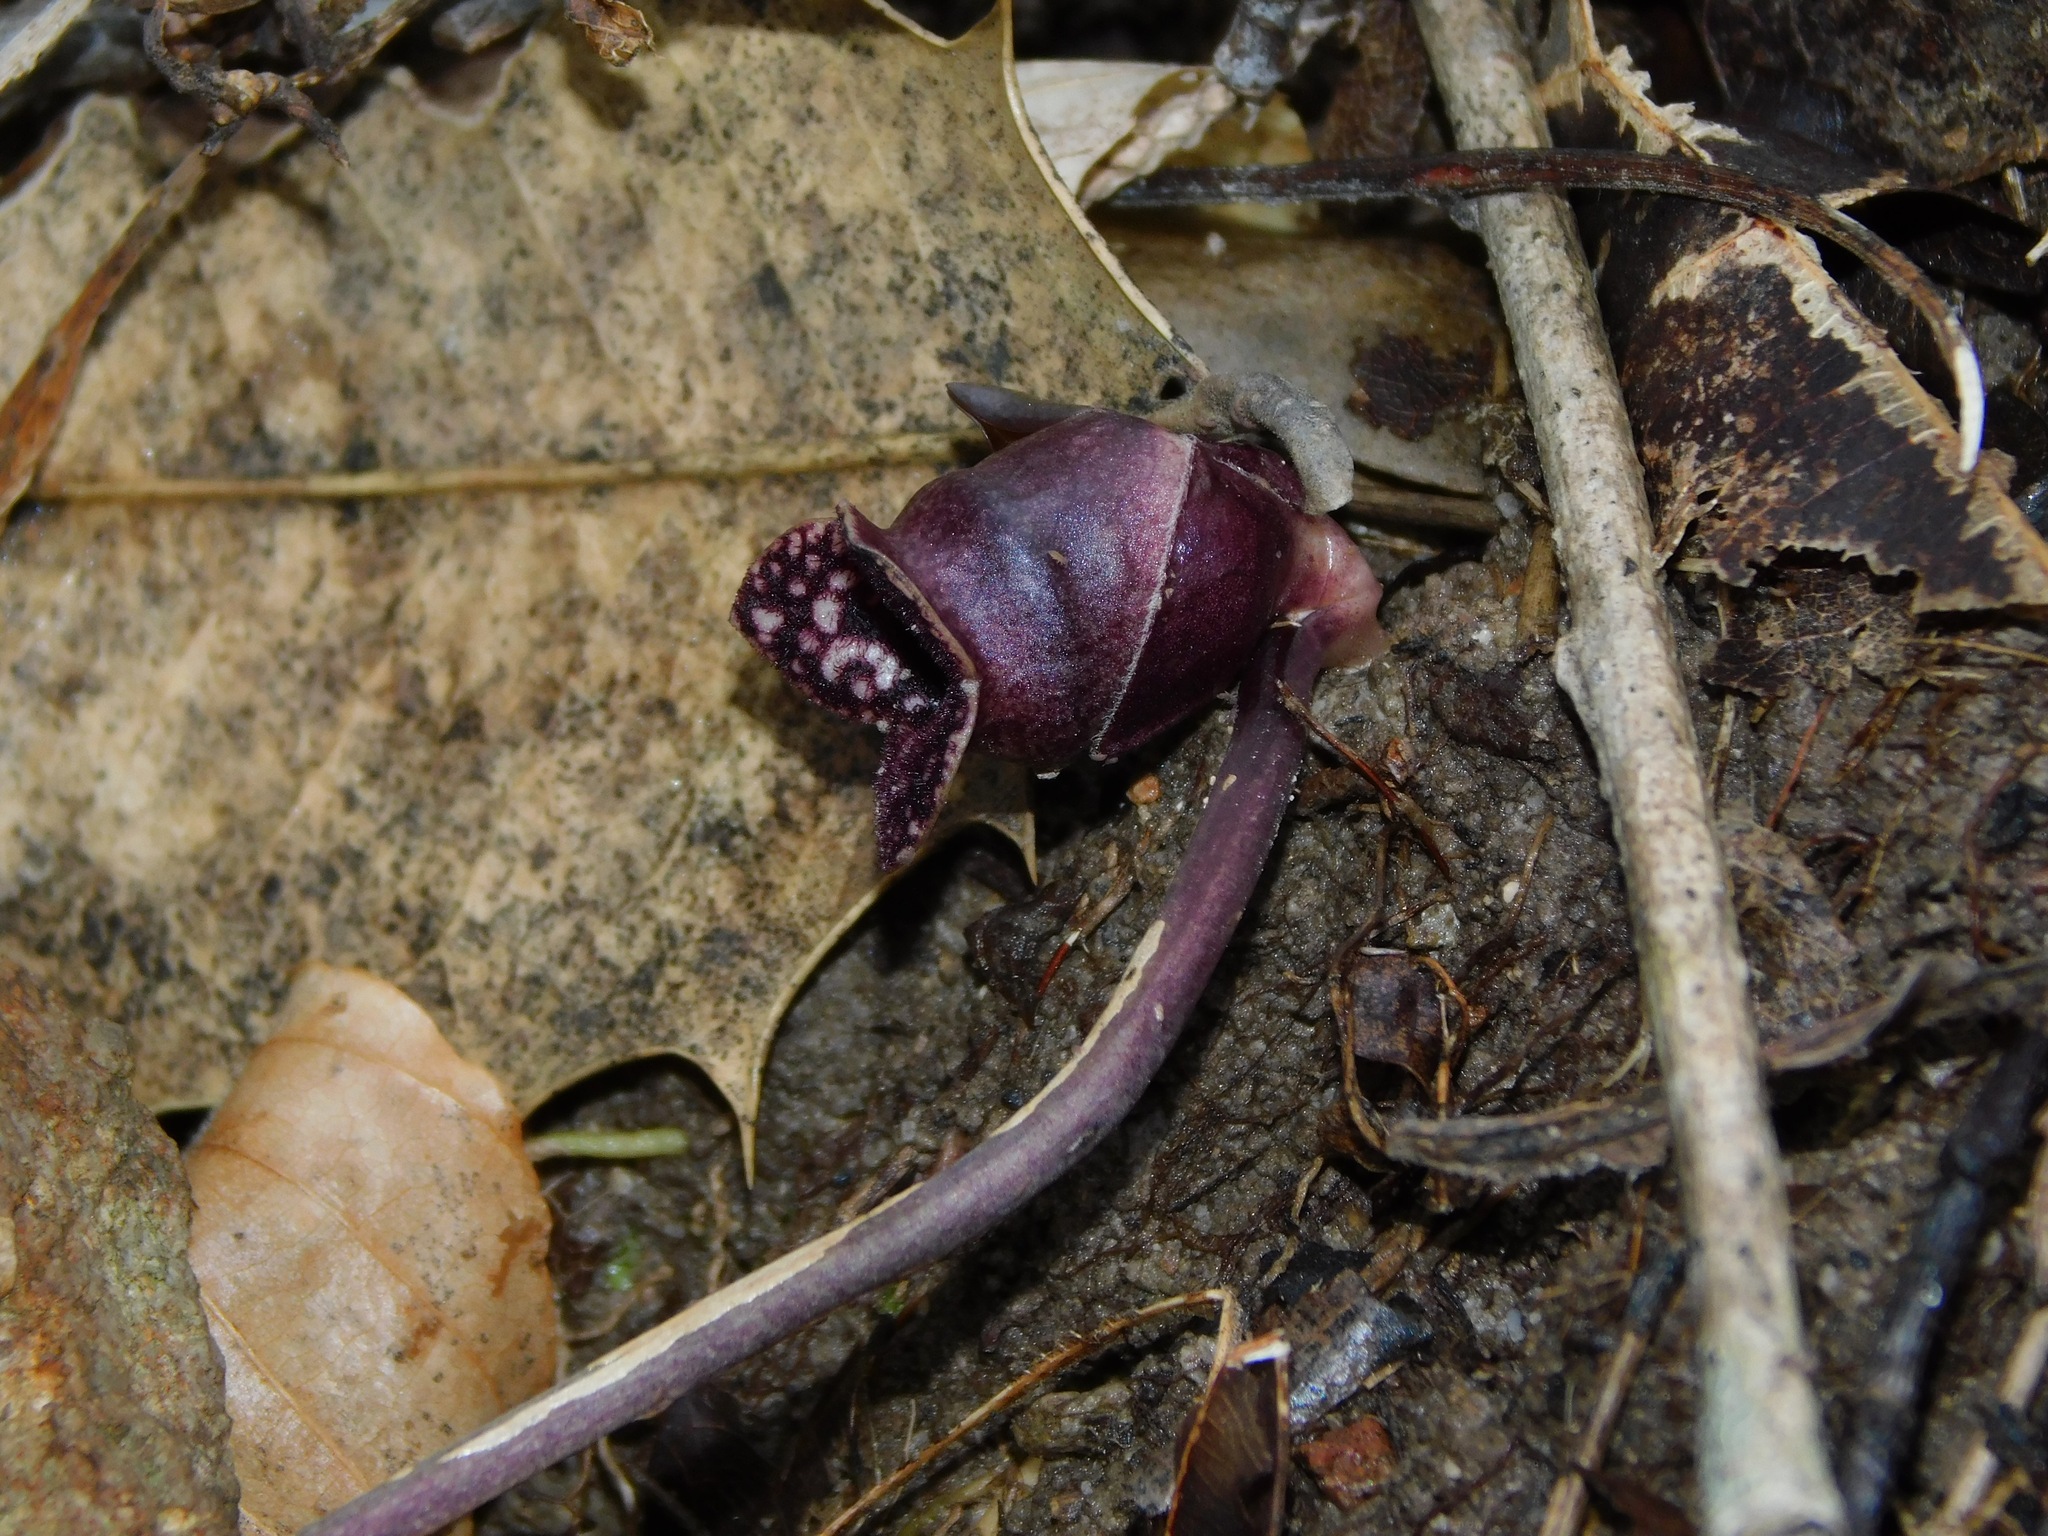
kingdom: Plantae
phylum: Tracheophyta
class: Magnoliopsida
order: Piperales
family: Aristolochiaceae
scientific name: Aristolochiaceae
